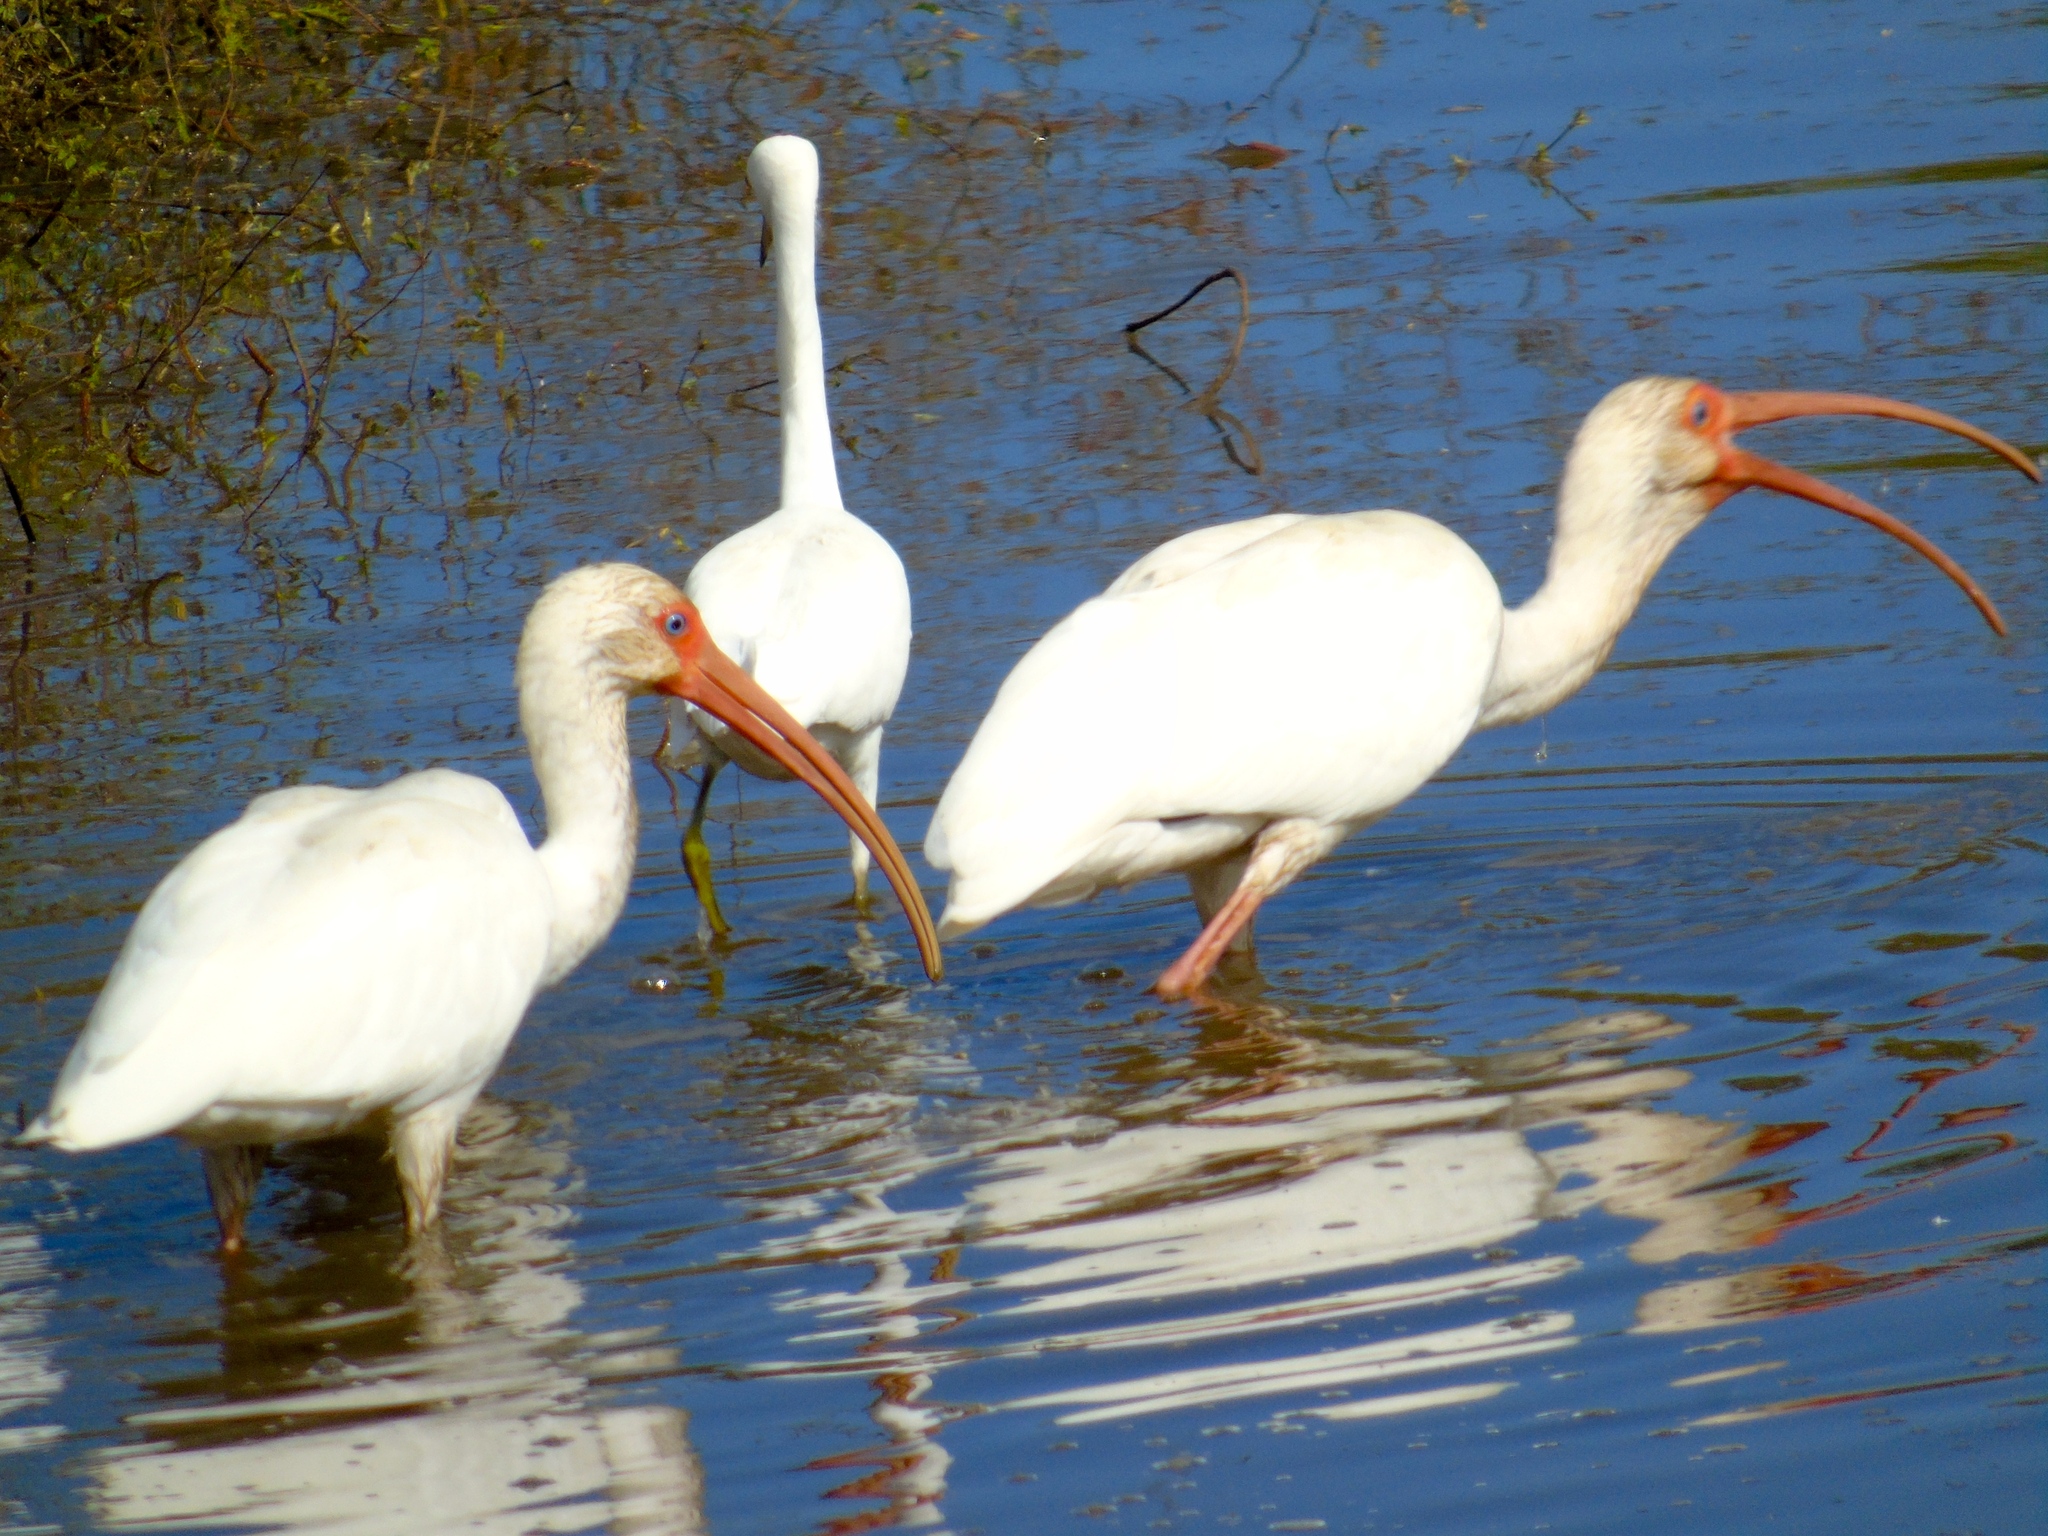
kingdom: Animalia
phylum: Chordata
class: Aves
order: Pelecaniformes
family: Threskiornithidae
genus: Eudocimus
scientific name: Eudocimus albus
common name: White ibis
